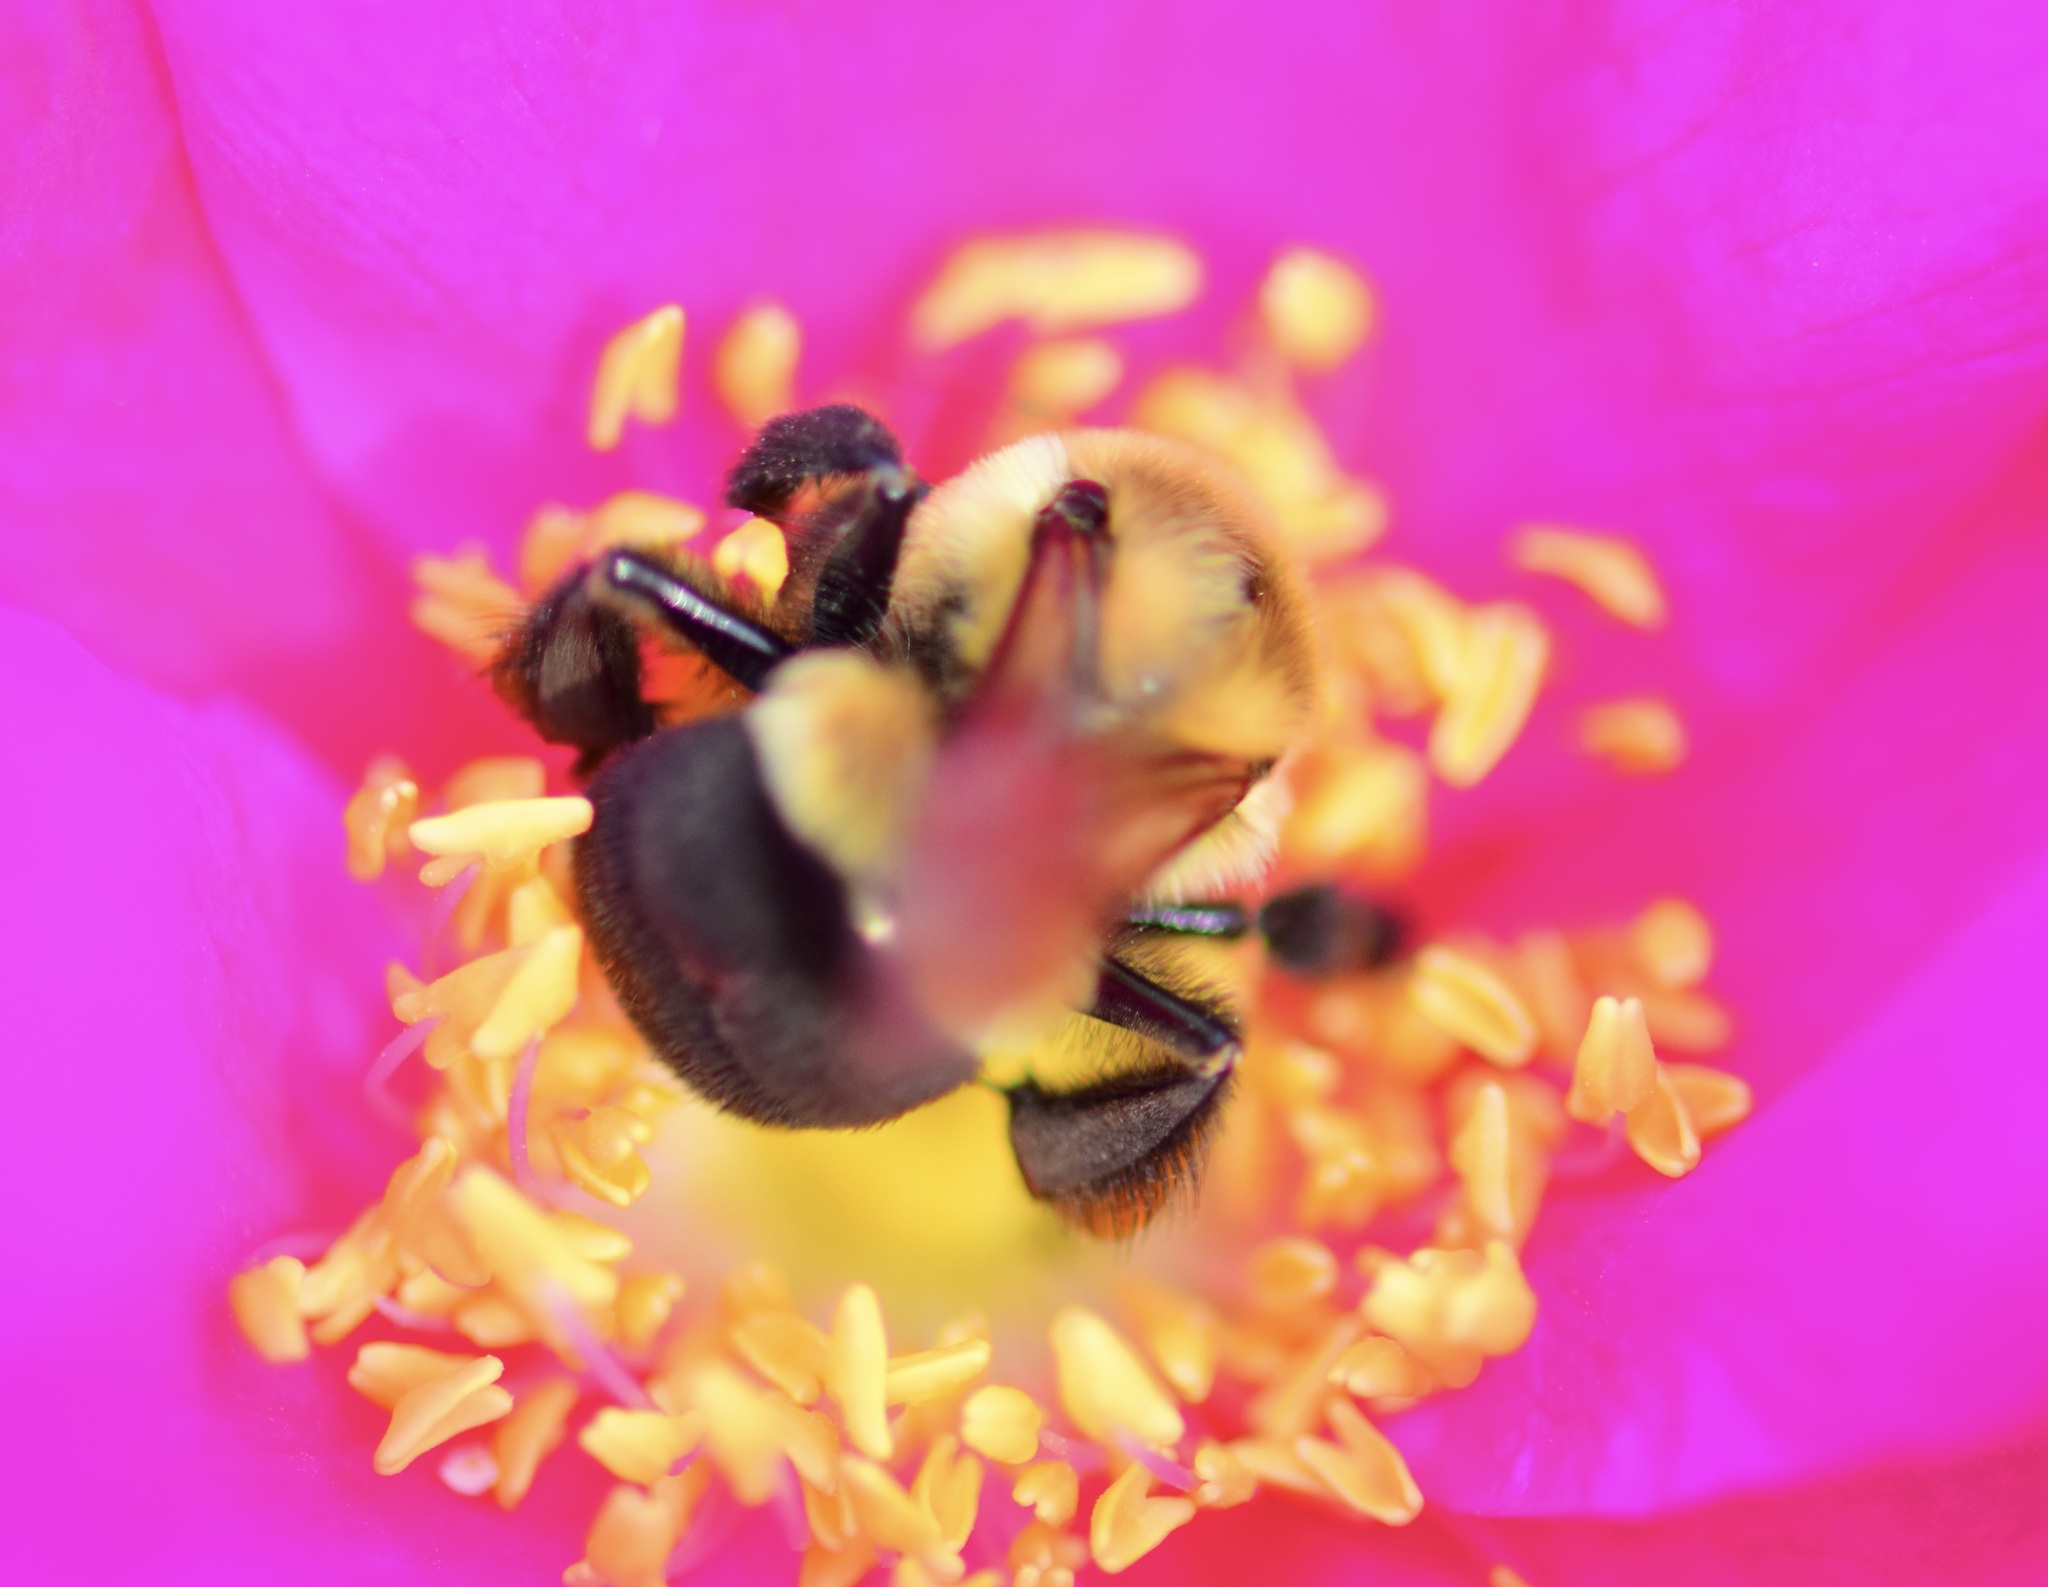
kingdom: Animalia
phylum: Arthropoda
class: Insecta
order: Hymenoptera
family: Apidae
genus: Bombus
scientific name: Bombus impatiens
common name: Common eastern bumble bee
